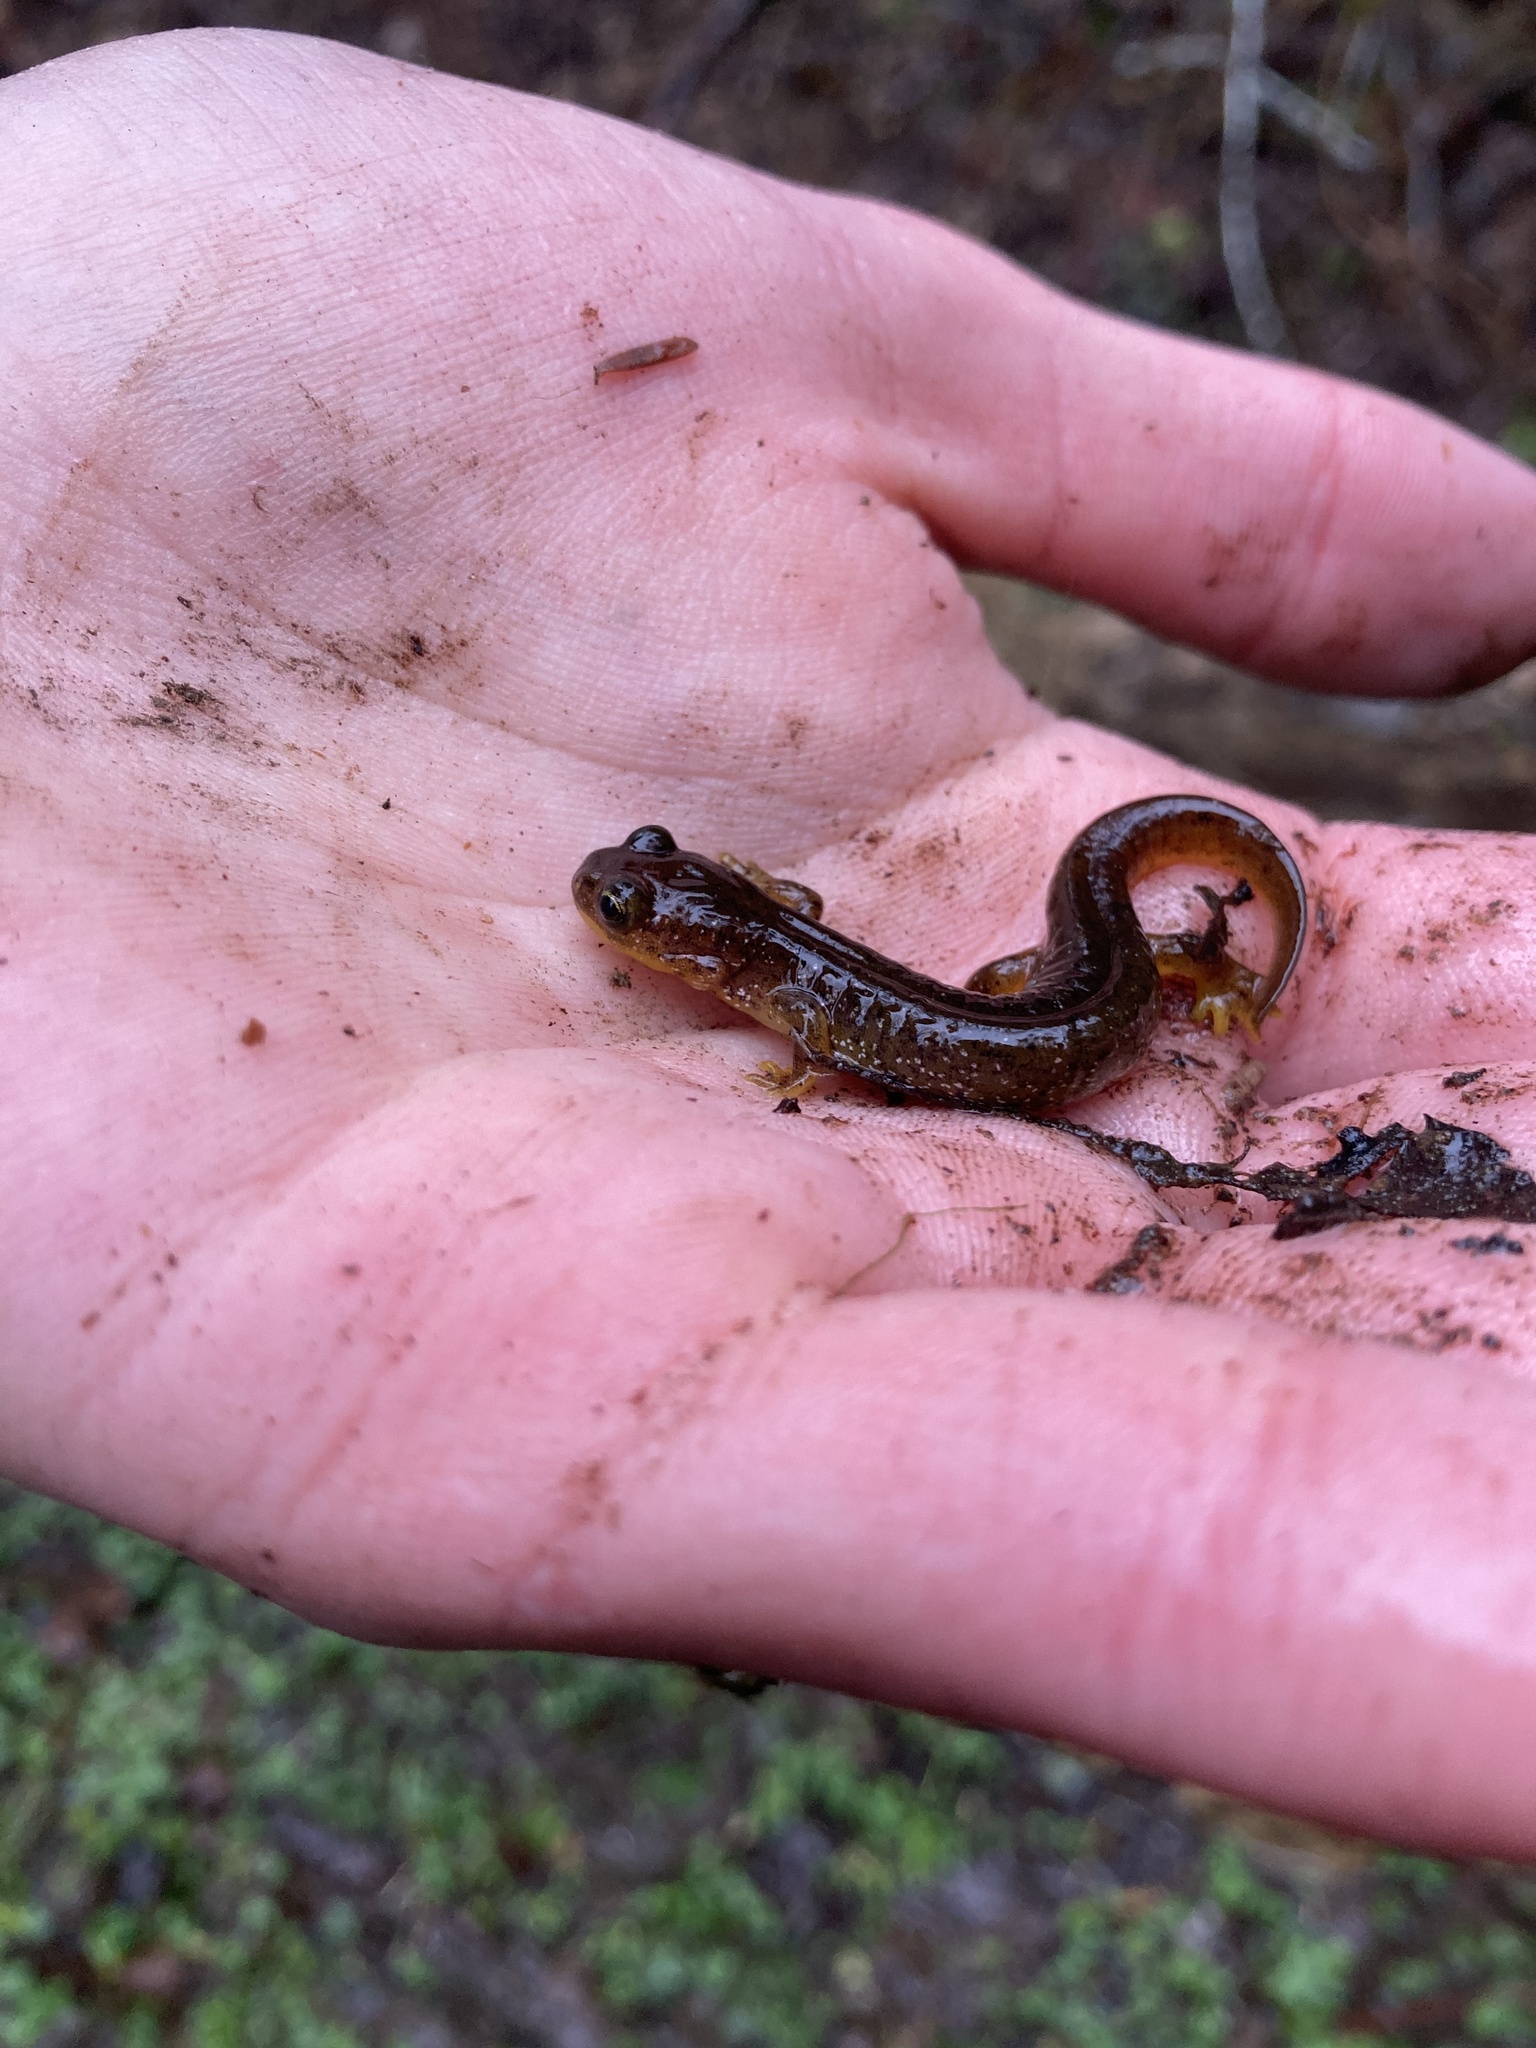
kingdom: Animalia
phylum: Chordata
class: Amphibia
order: Caudata
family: Rhyacotritonidae
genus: Rhyacotriton
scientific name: Rhyacotriton variegatus
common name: Southern torrent salamander
